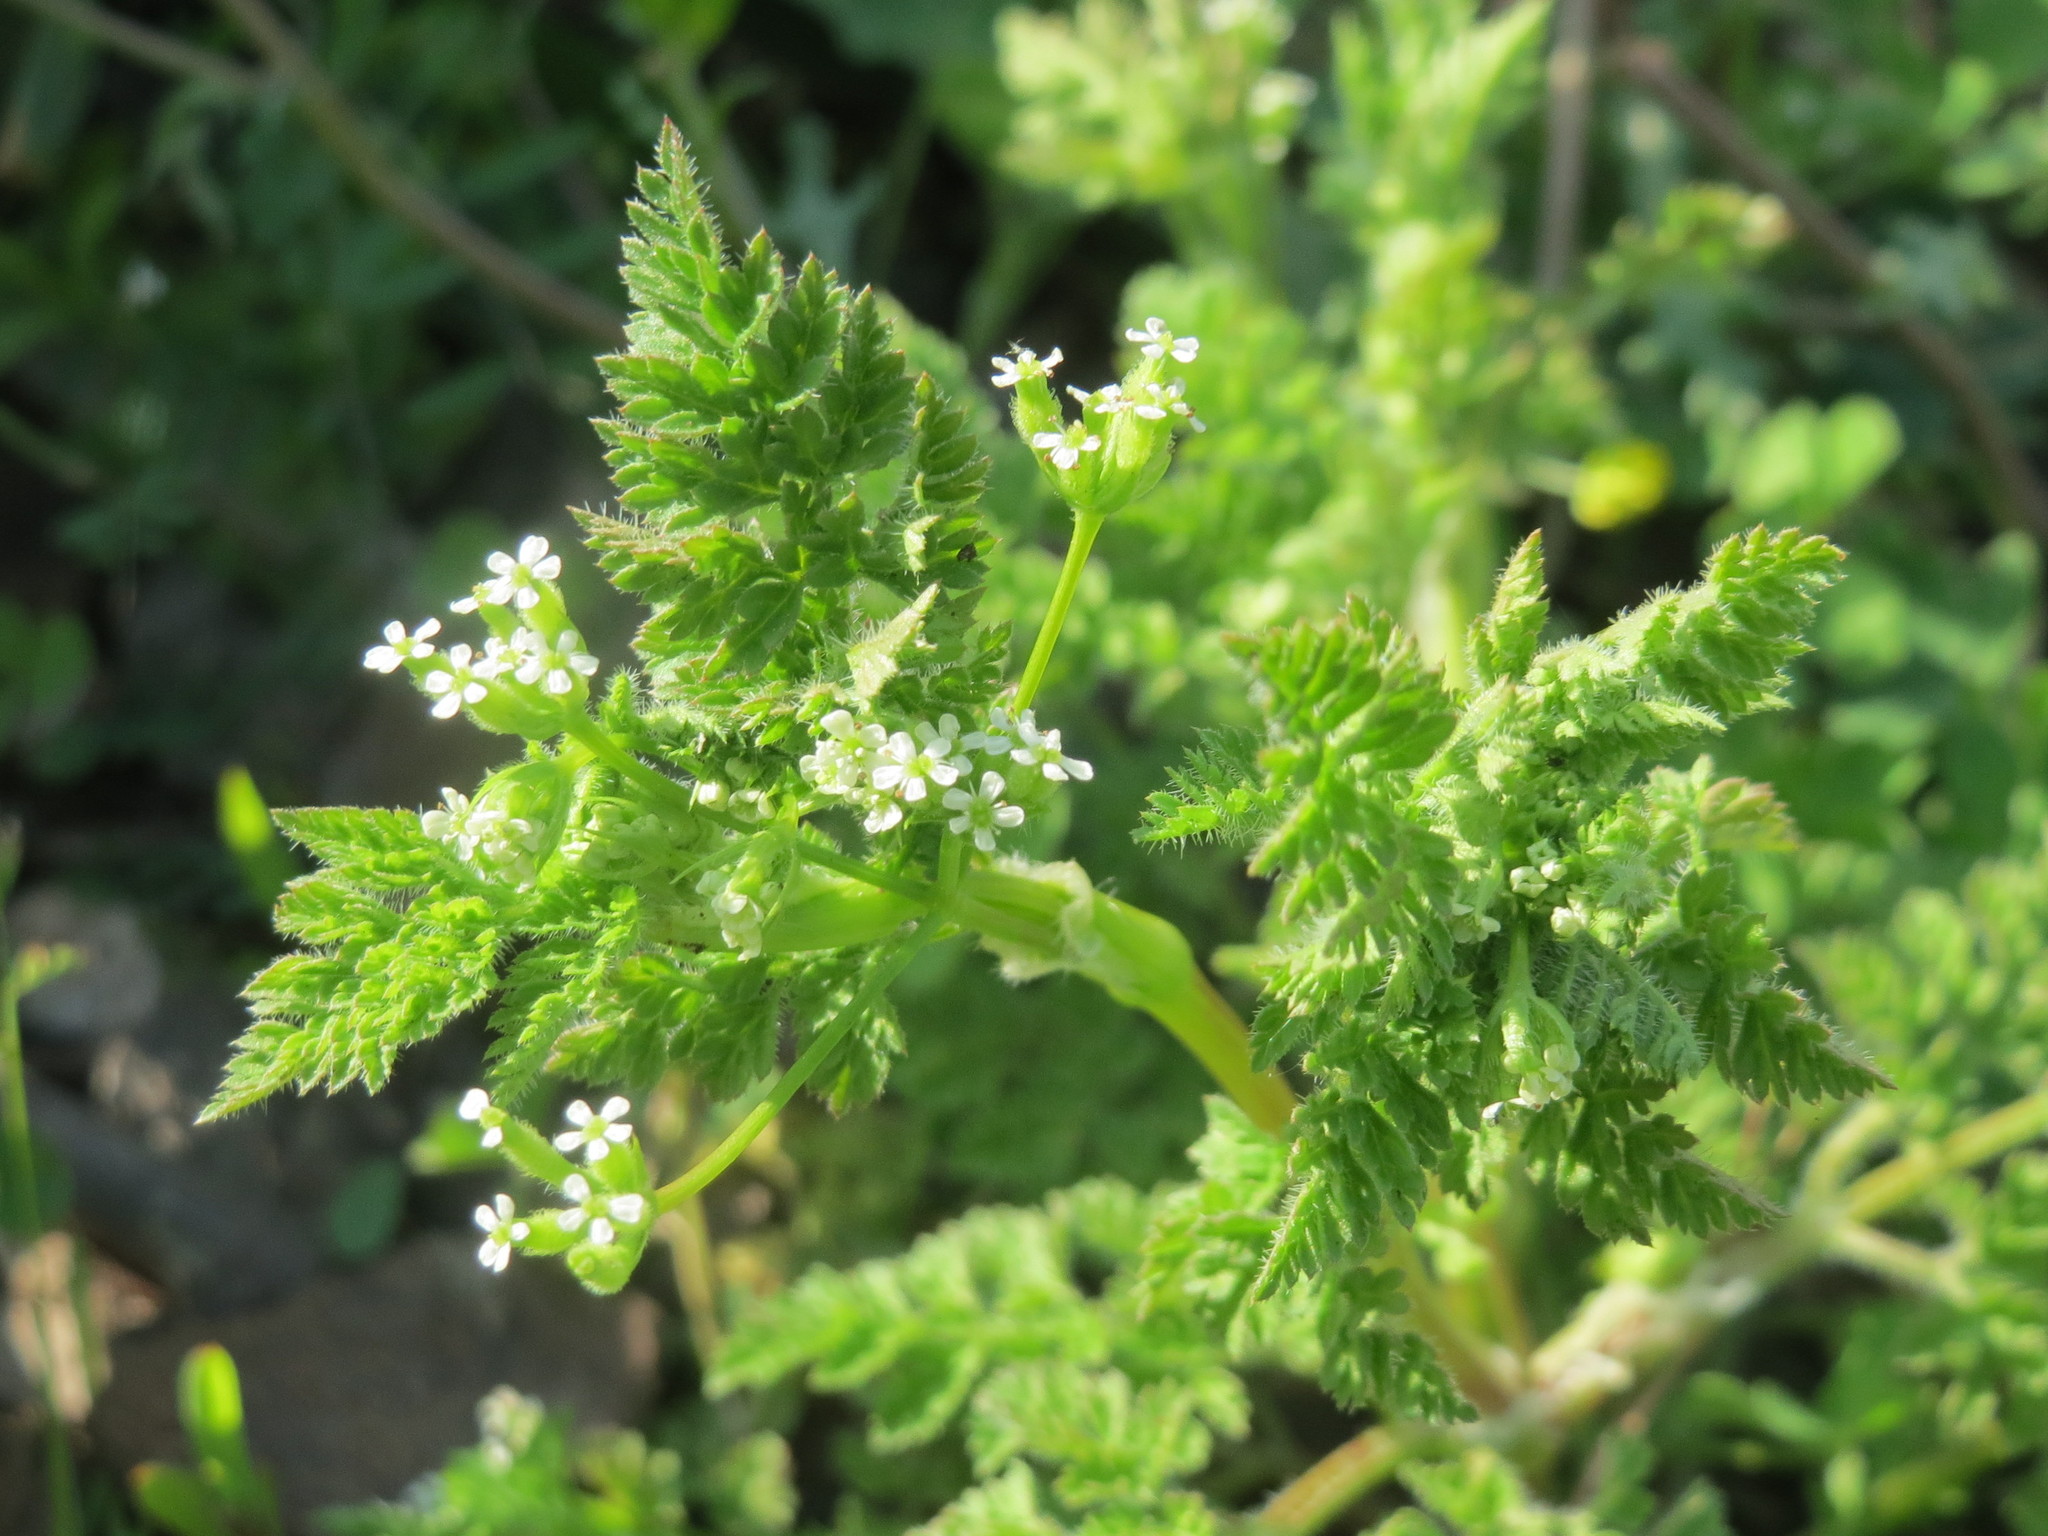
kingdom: Plantae
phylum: Tracheophyta
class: Magnoliopsida
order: Apiales
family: Apiaceae
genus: Anthriscus
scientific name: Anthriscus sylvestris
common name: Cow parsley
